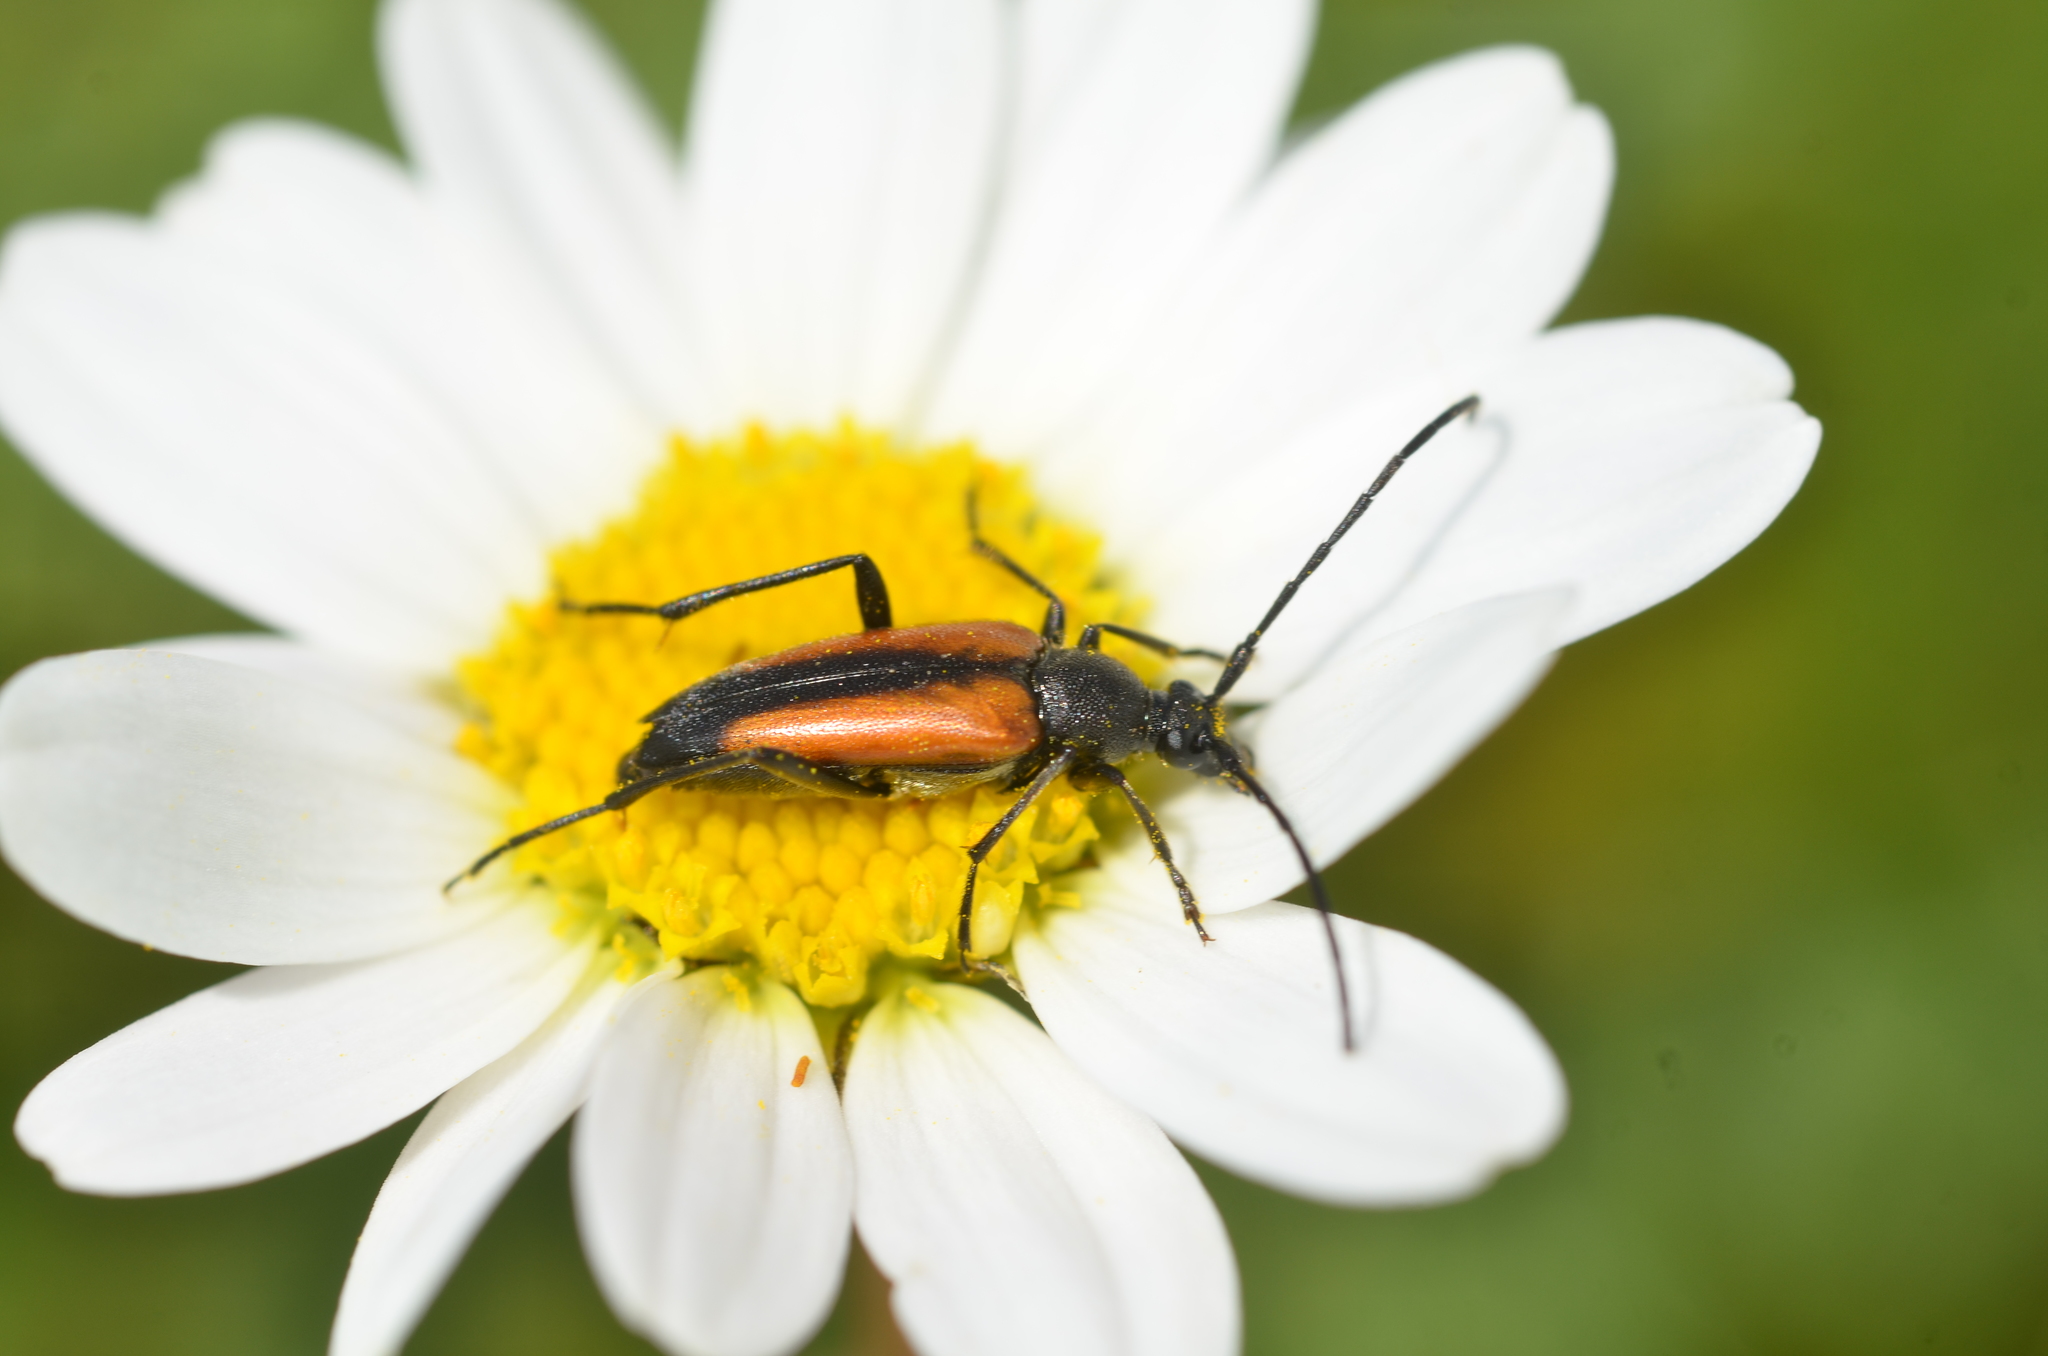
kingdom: Animalia
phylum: Arthropoda
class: Insecta
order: Coleoptera
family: Cerambycidae
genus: Stenurella
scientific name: Stenurella melanura
